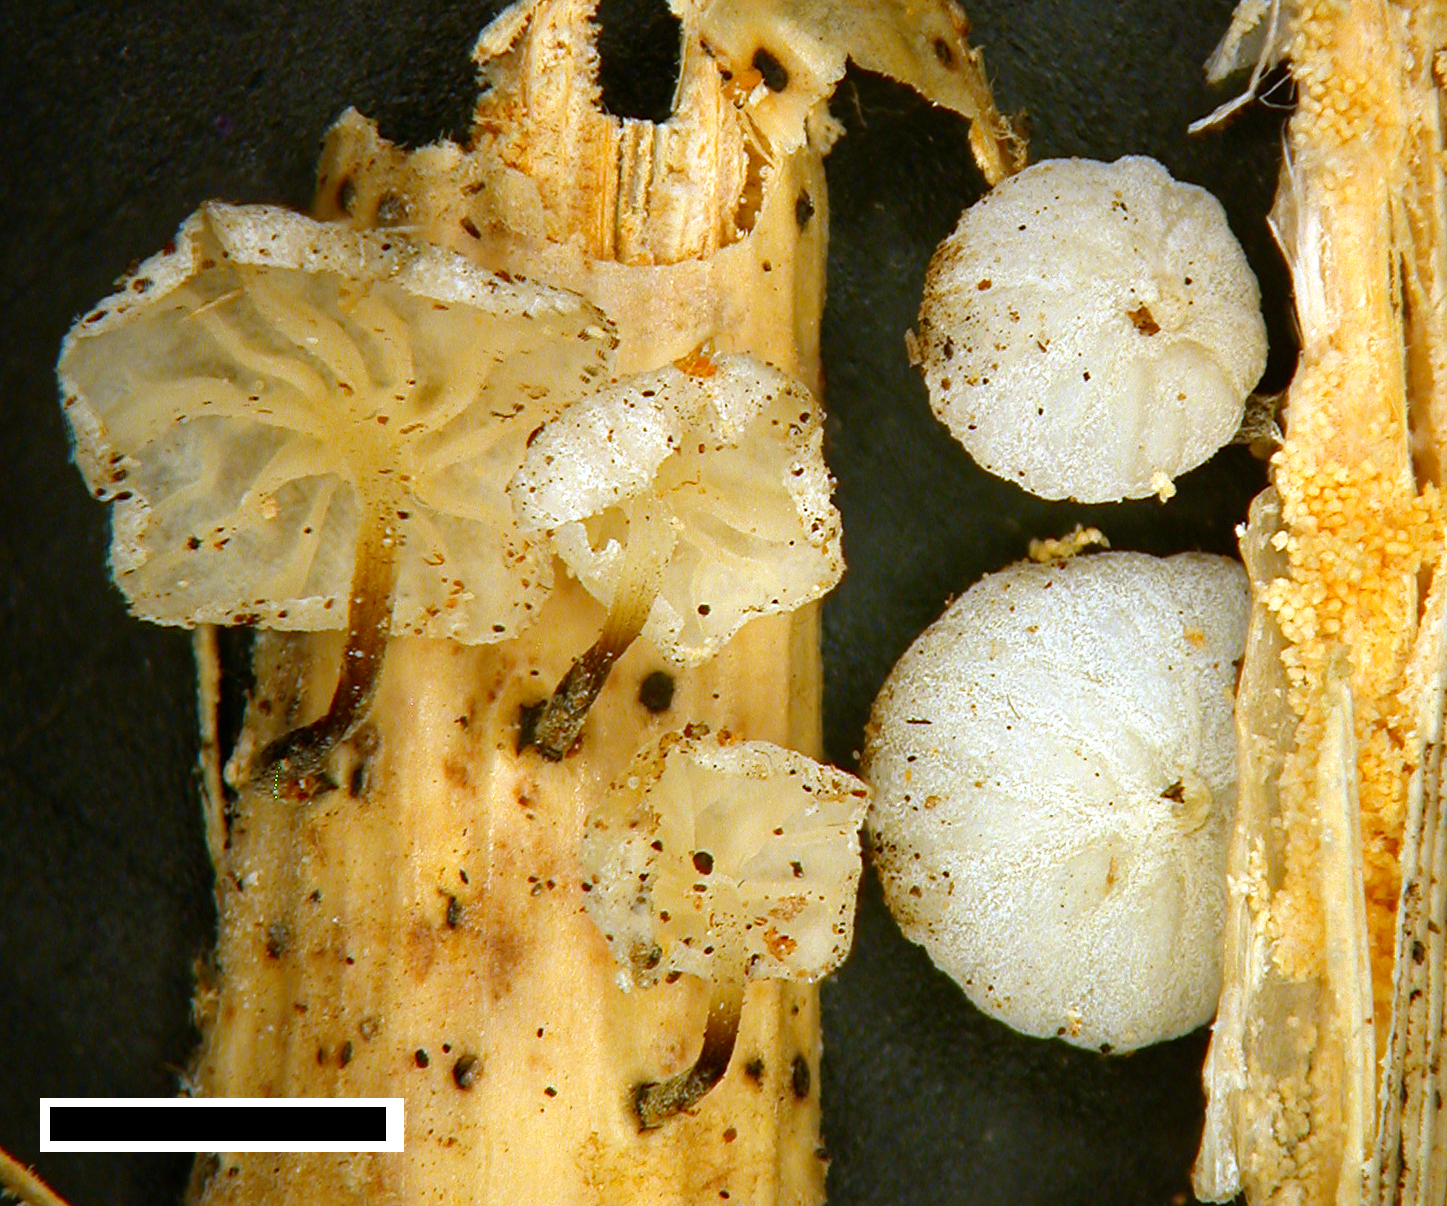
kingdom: Fungi
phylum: Basidiomycota
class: Agaricomycetes
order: Agaricales
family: Marasmiaceae
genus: Campanella
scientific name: Campanella
